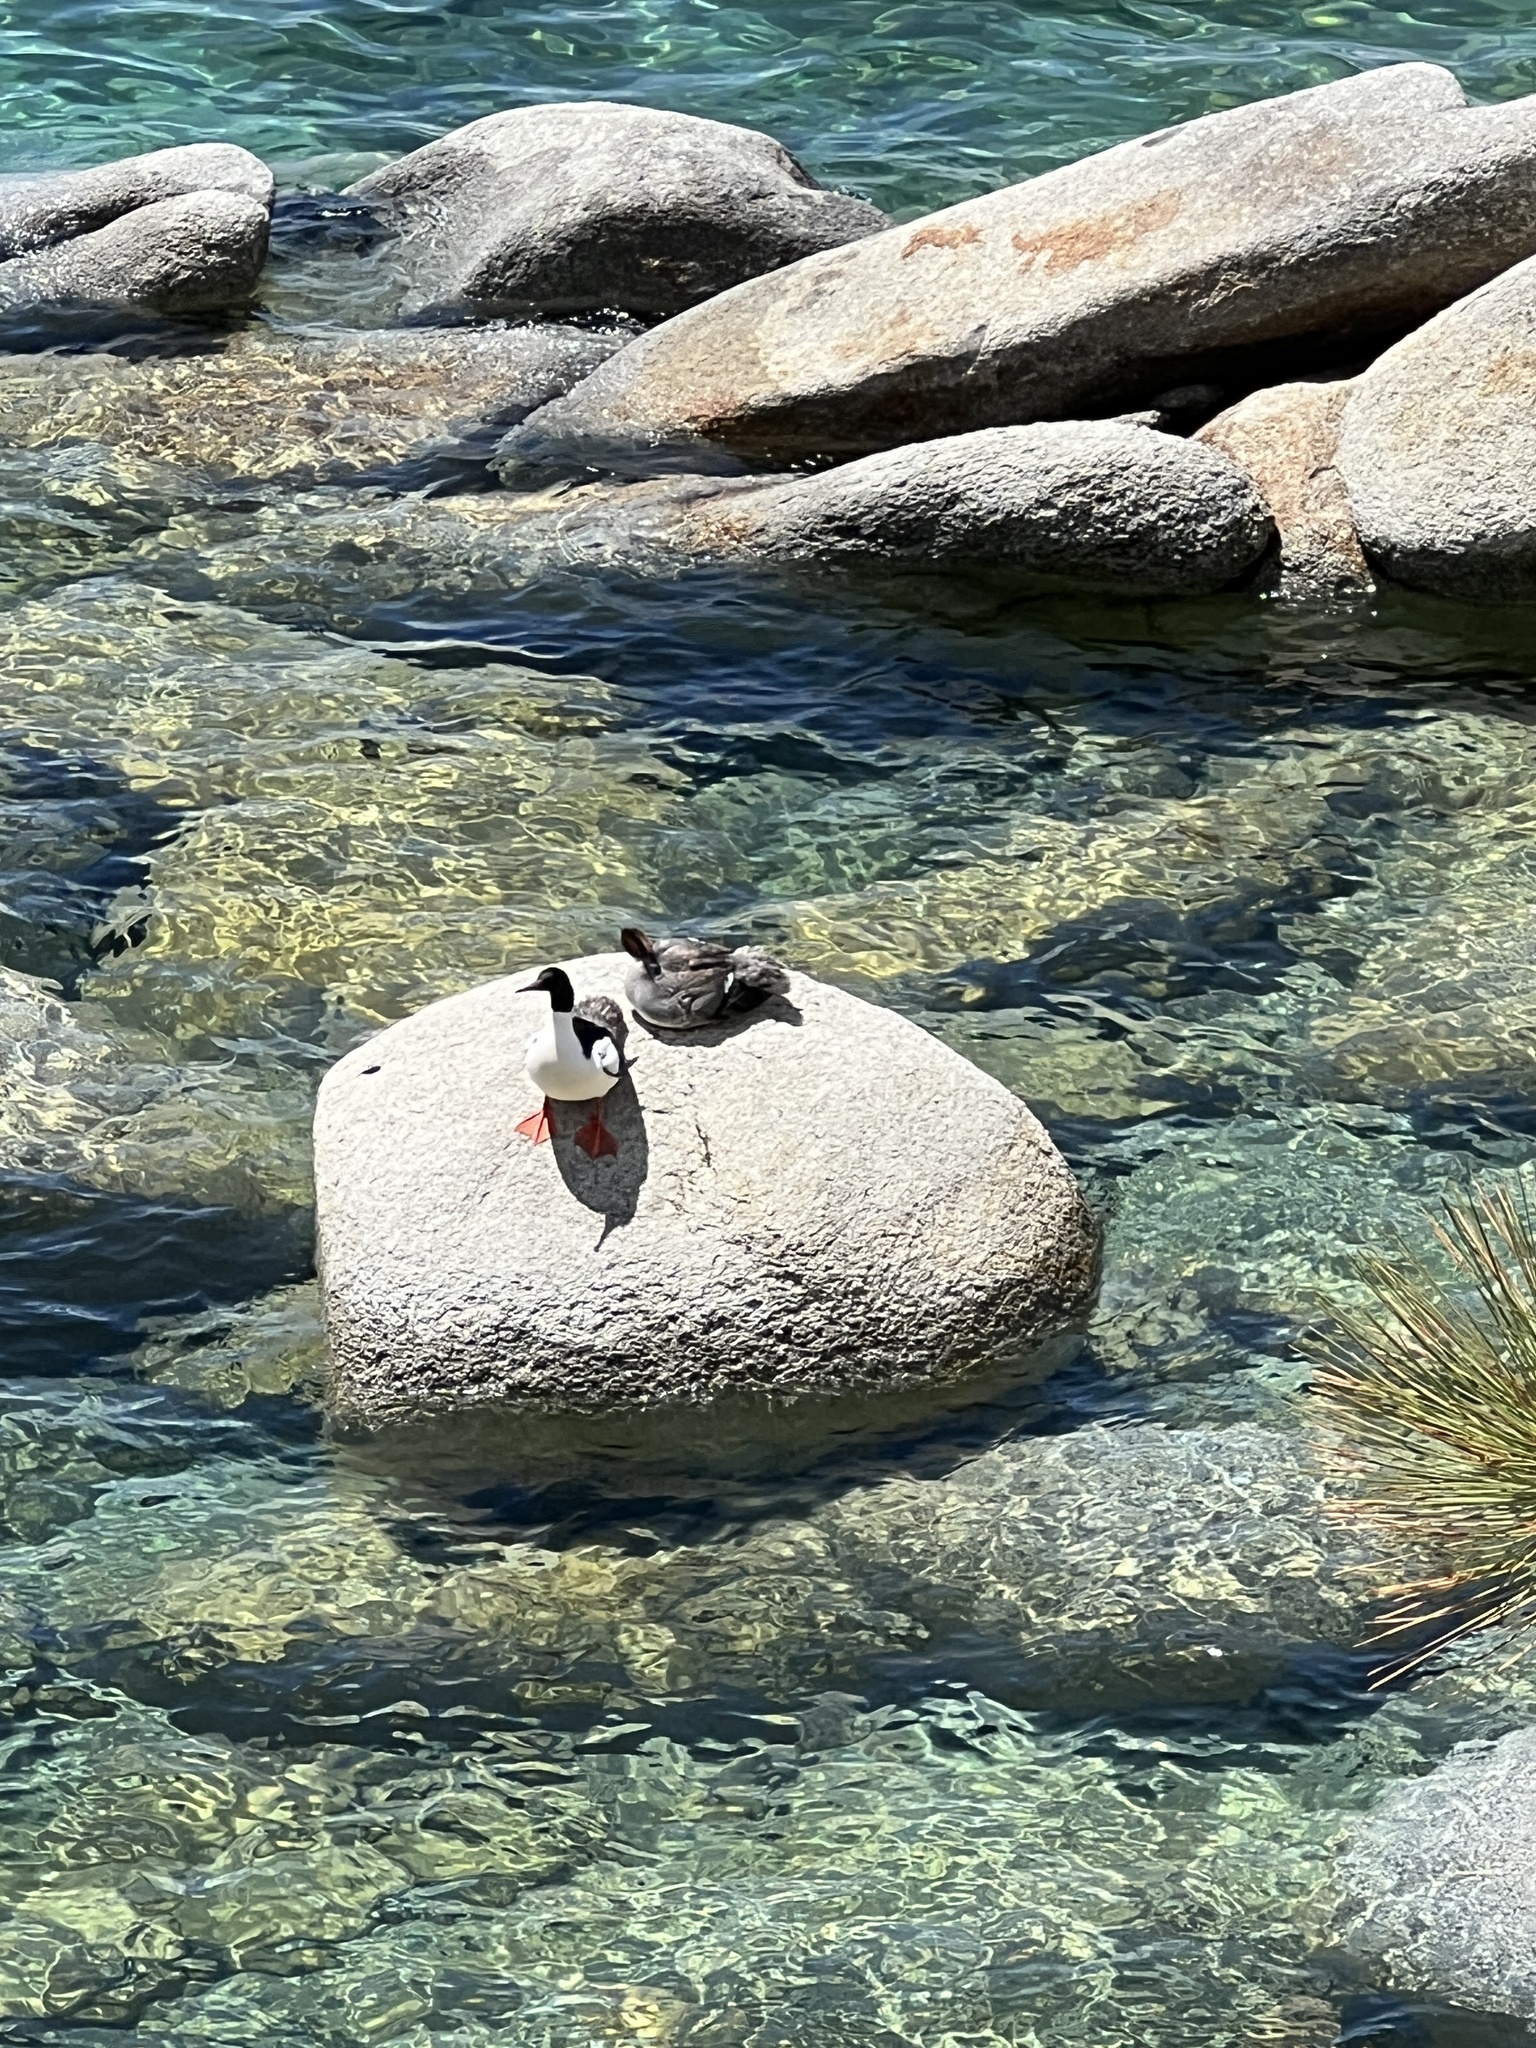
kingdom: Animalia
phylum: Chordata
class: Aves
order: Anseriformes
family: Anatidae
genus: Mergus
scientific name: Mergus merganser
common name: Common merganser
